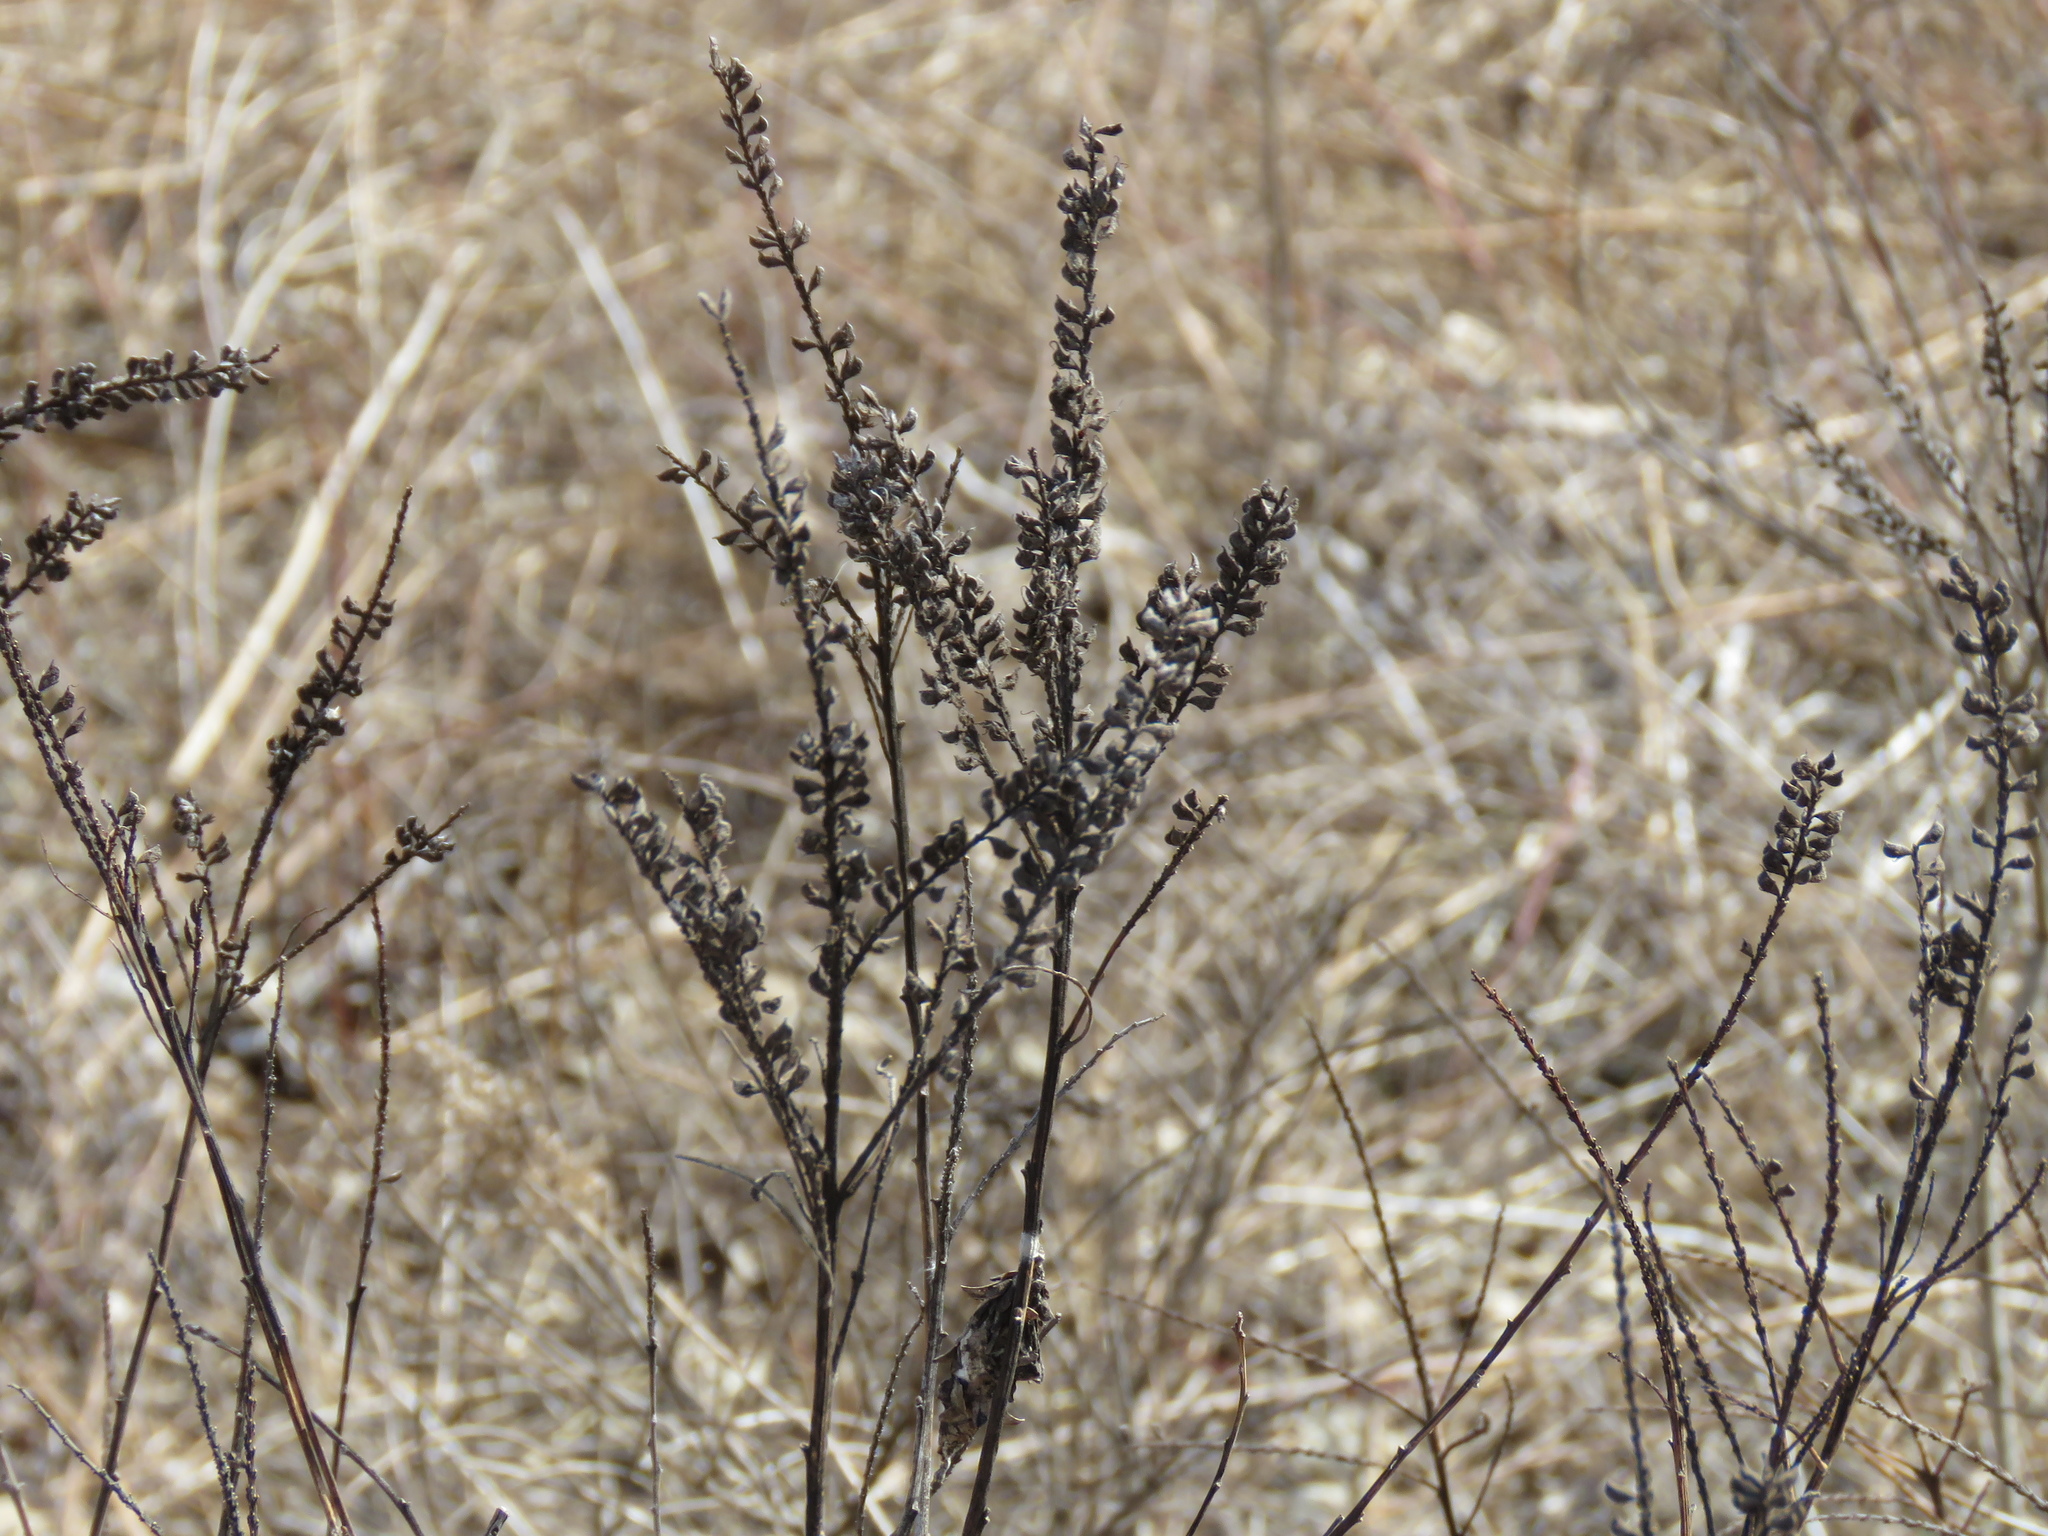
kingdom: Plantae
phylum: Tracheophyta
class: Magnoliopsida
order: Fabales
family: Fabaceae
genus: Amorpha
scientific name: Amorpha canescens
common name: Leadplant
